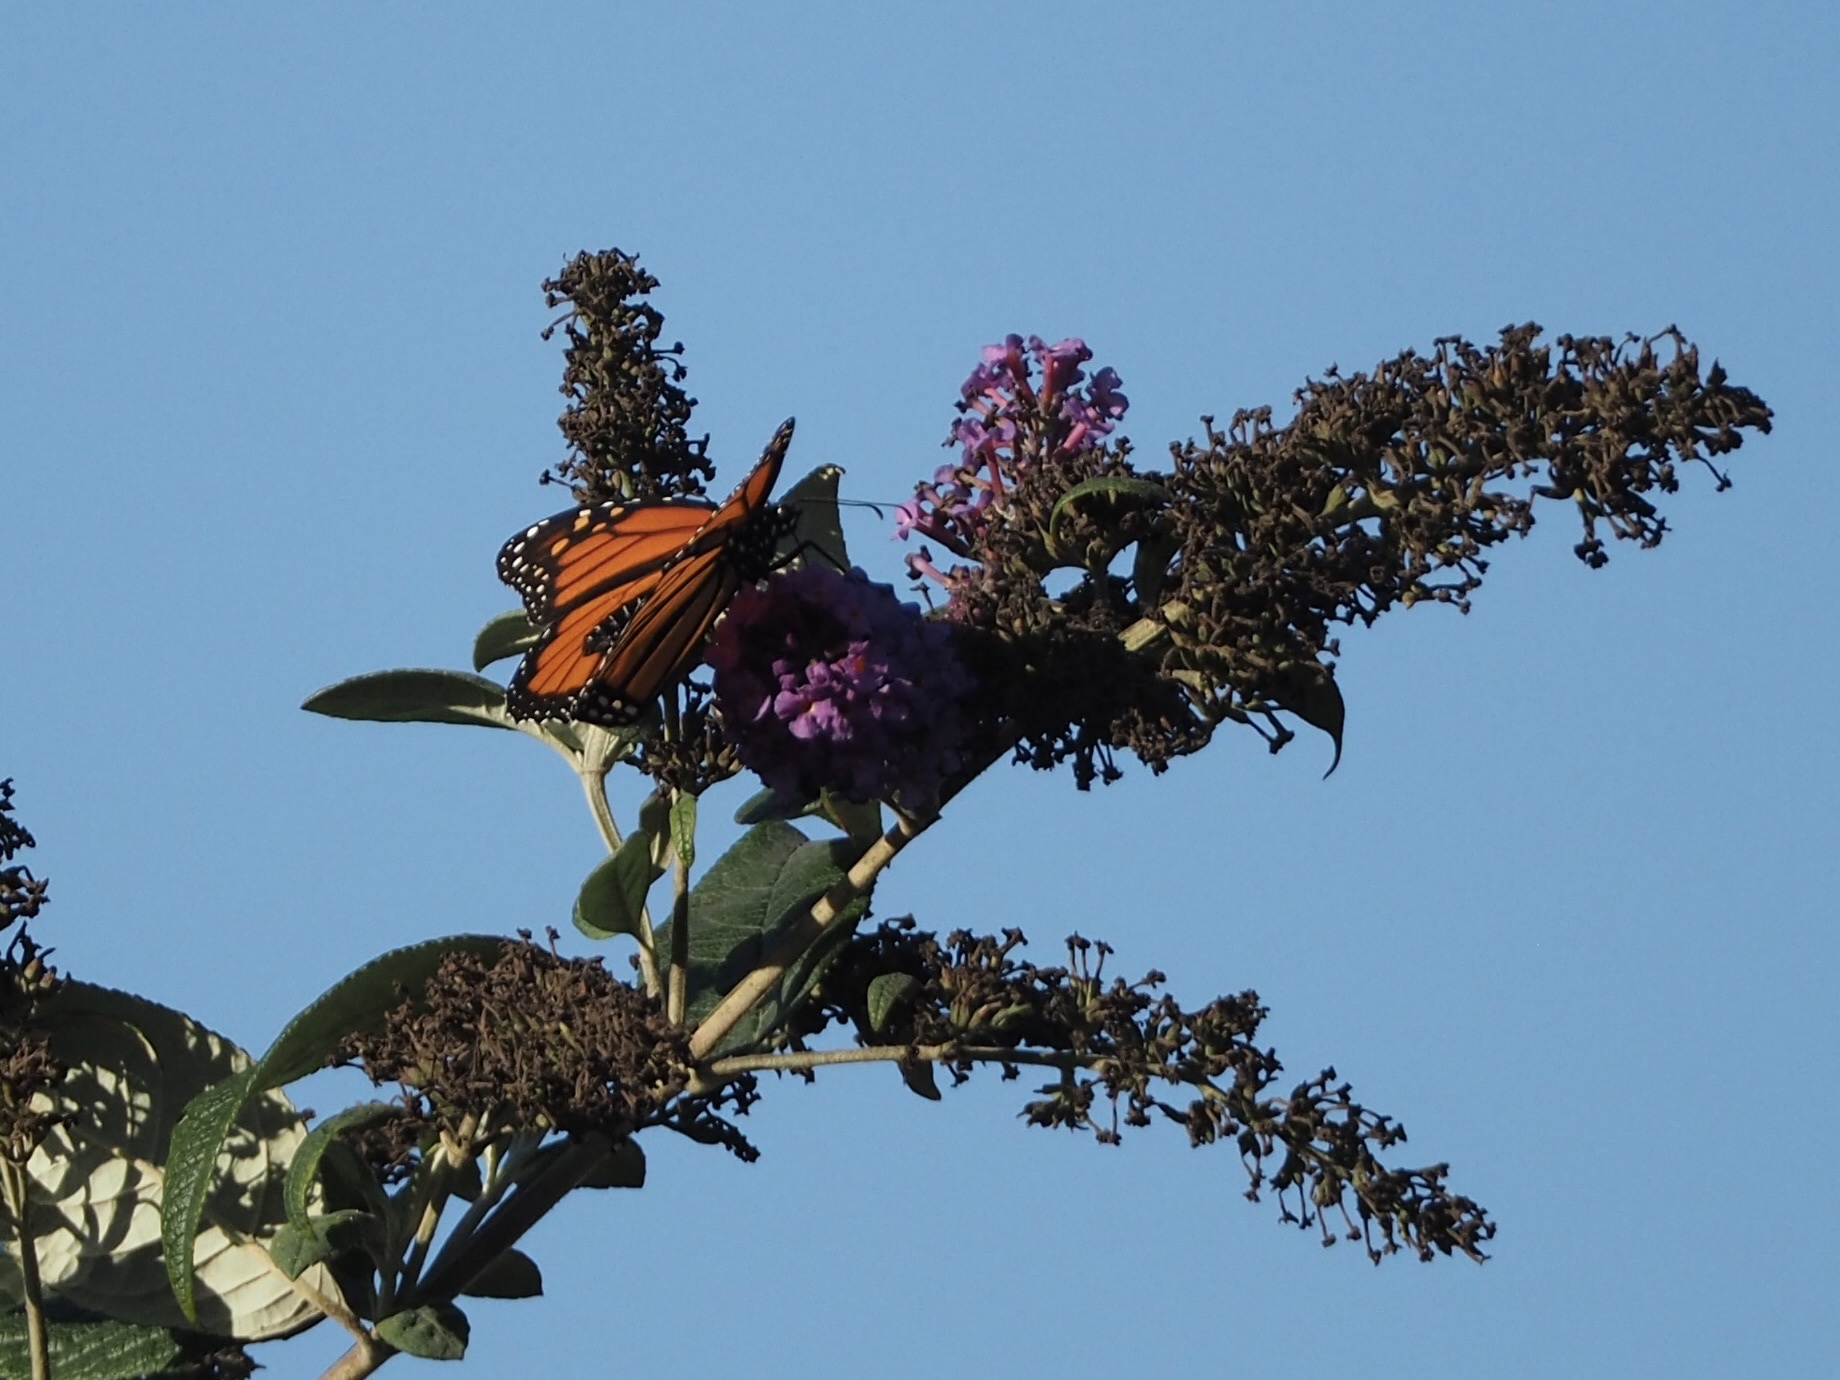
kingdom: Animalia
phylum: Arthropoda
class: Insecta
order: Lepidoptera
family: Nymphalidae
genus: Danaus
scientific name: Danaus plexippus
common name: Monarch
